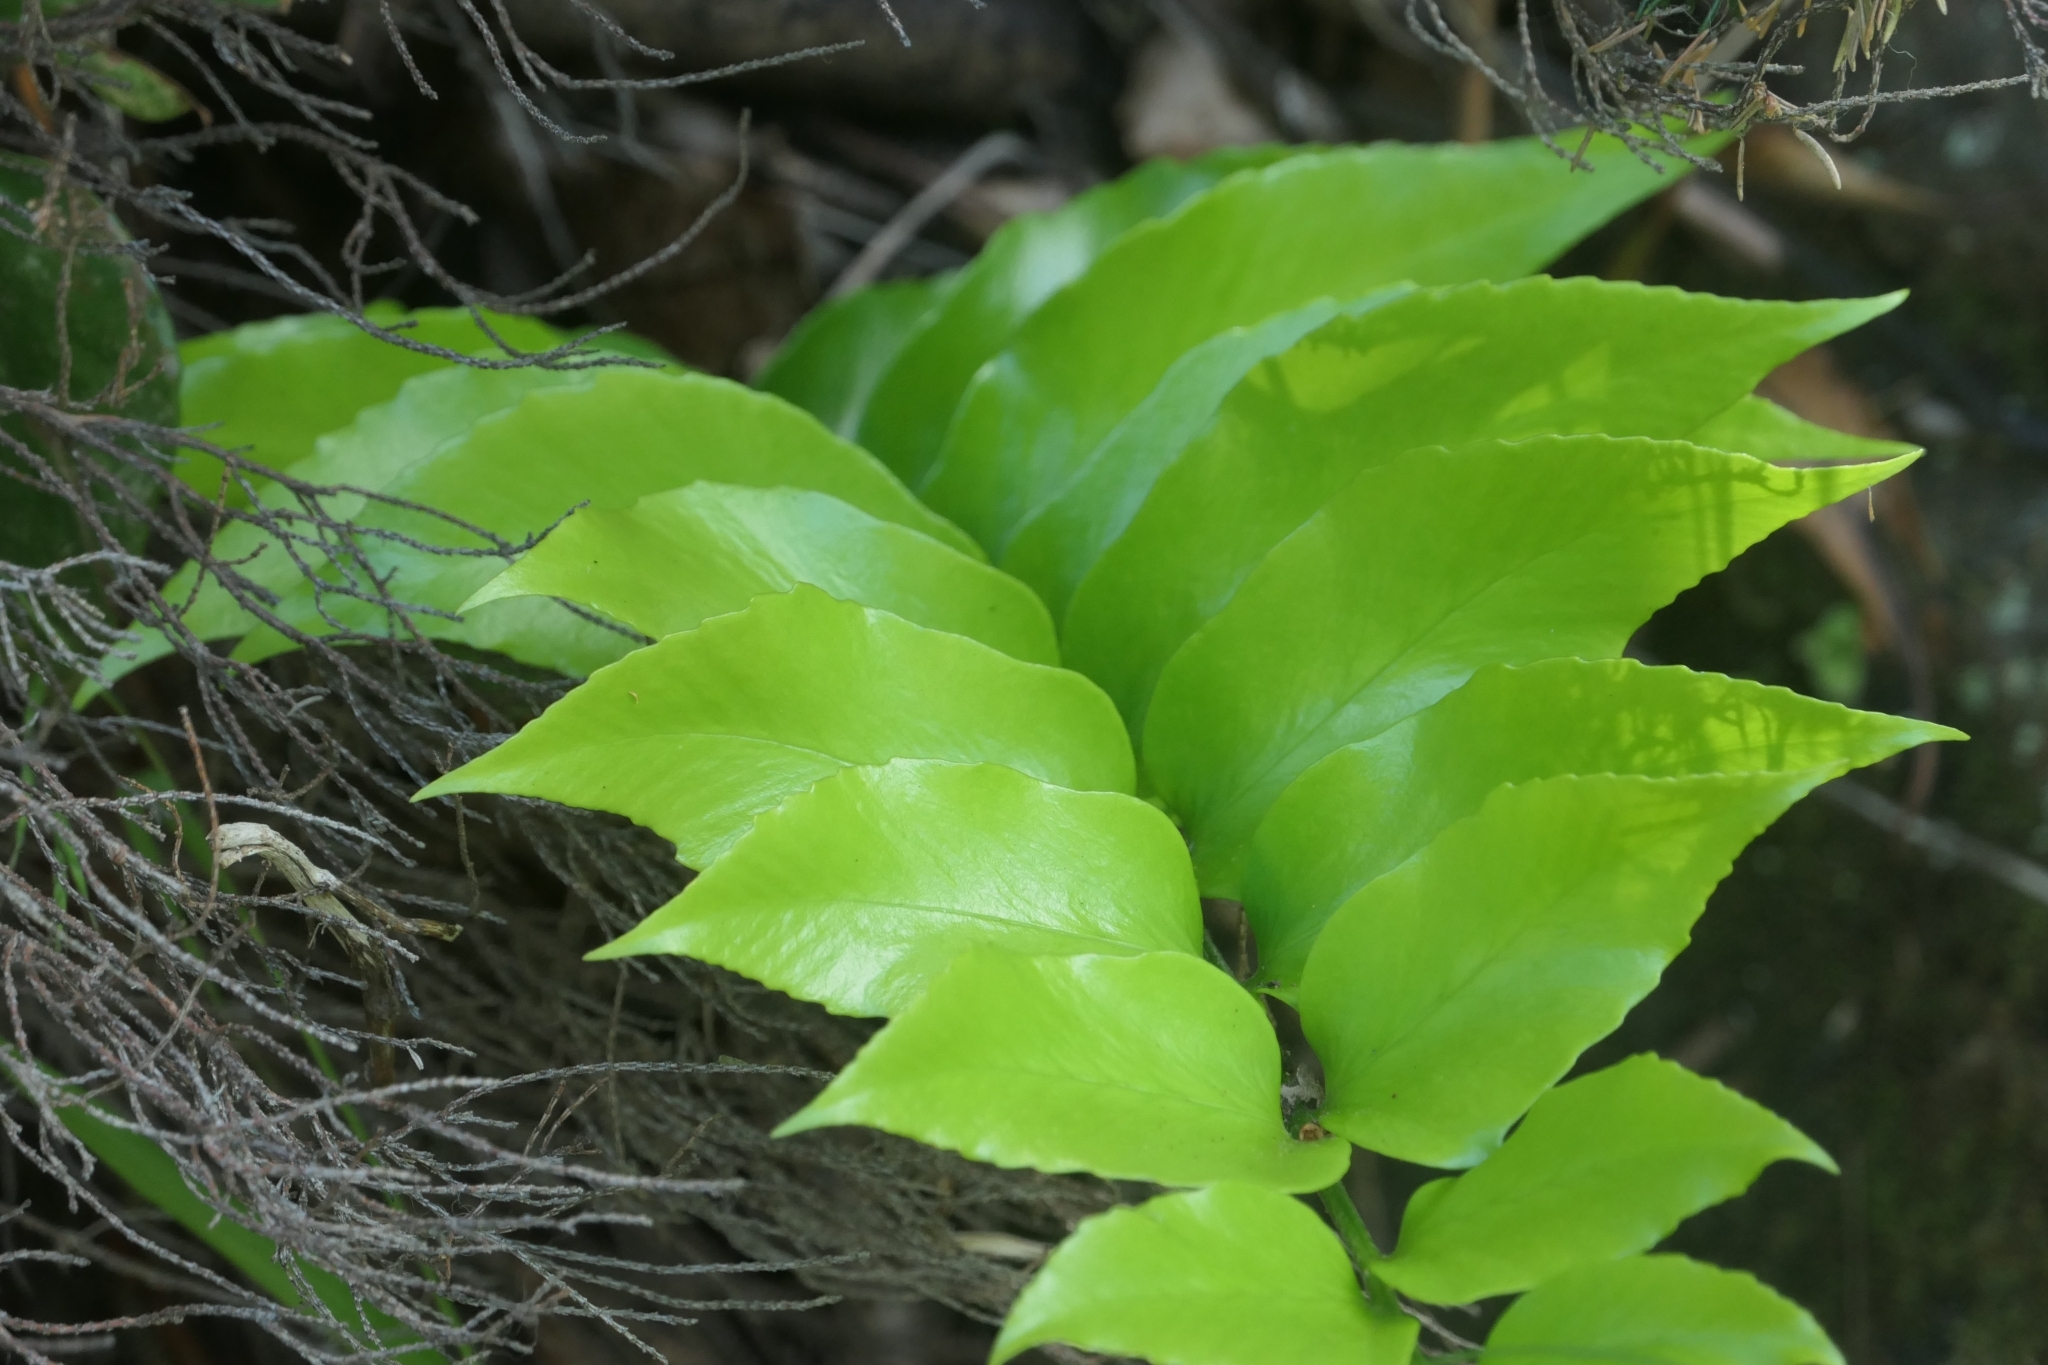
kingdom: Plantae
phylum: Tracheophyta
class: Polypodiopsida
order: Polypodiales
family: Dryopteridaceae
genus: Cyrtomium
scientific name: Cyrtomium falcatum
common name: House holly-fern
